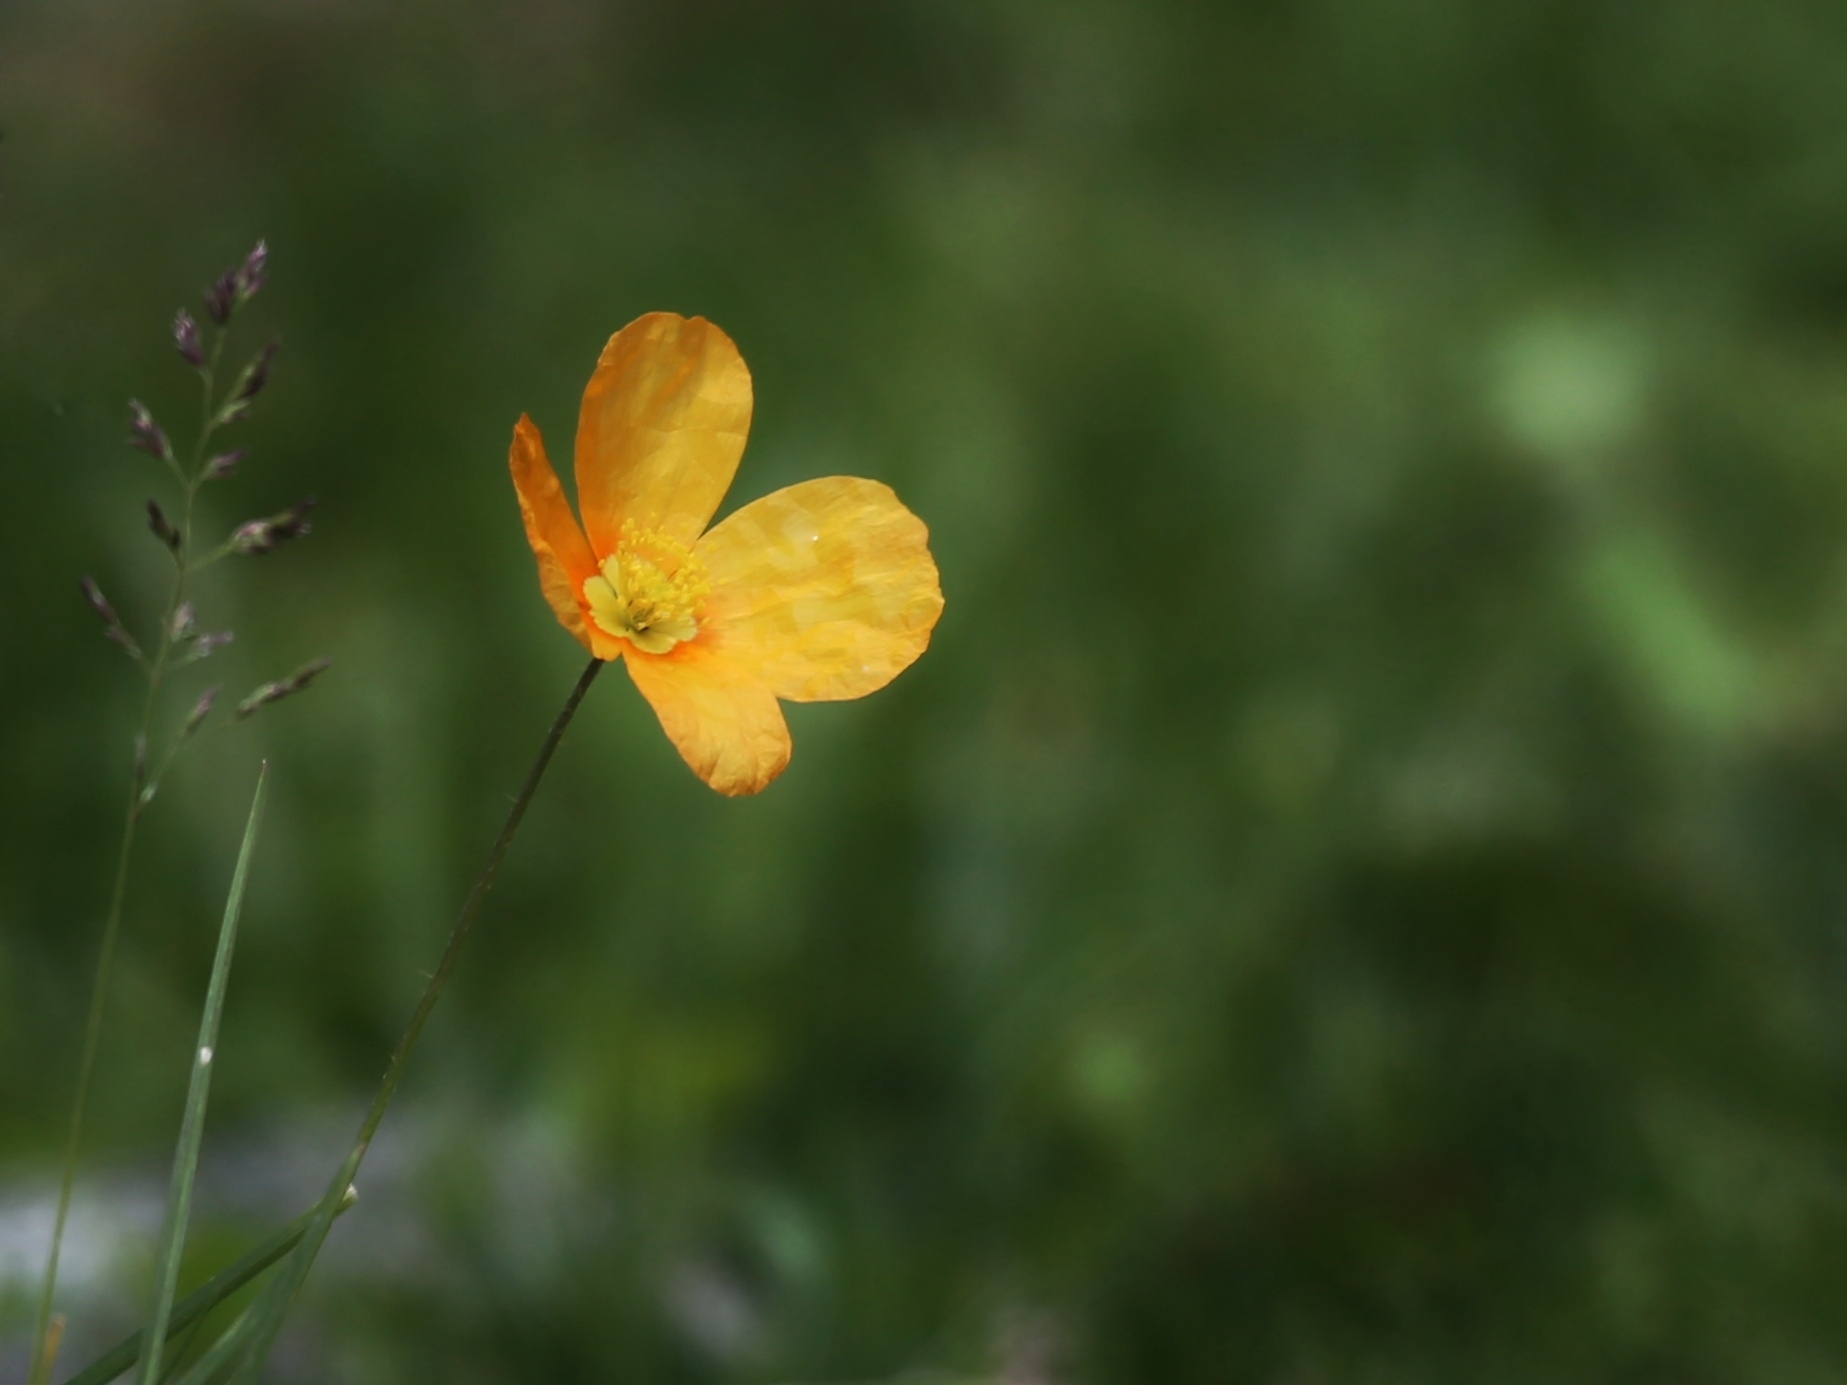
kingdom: Plantae
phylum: Tracheophyta
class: Magnoliopsida
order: Ranunculales
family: Papaveraceae
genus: Oreomecon
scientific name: Oreomecon
